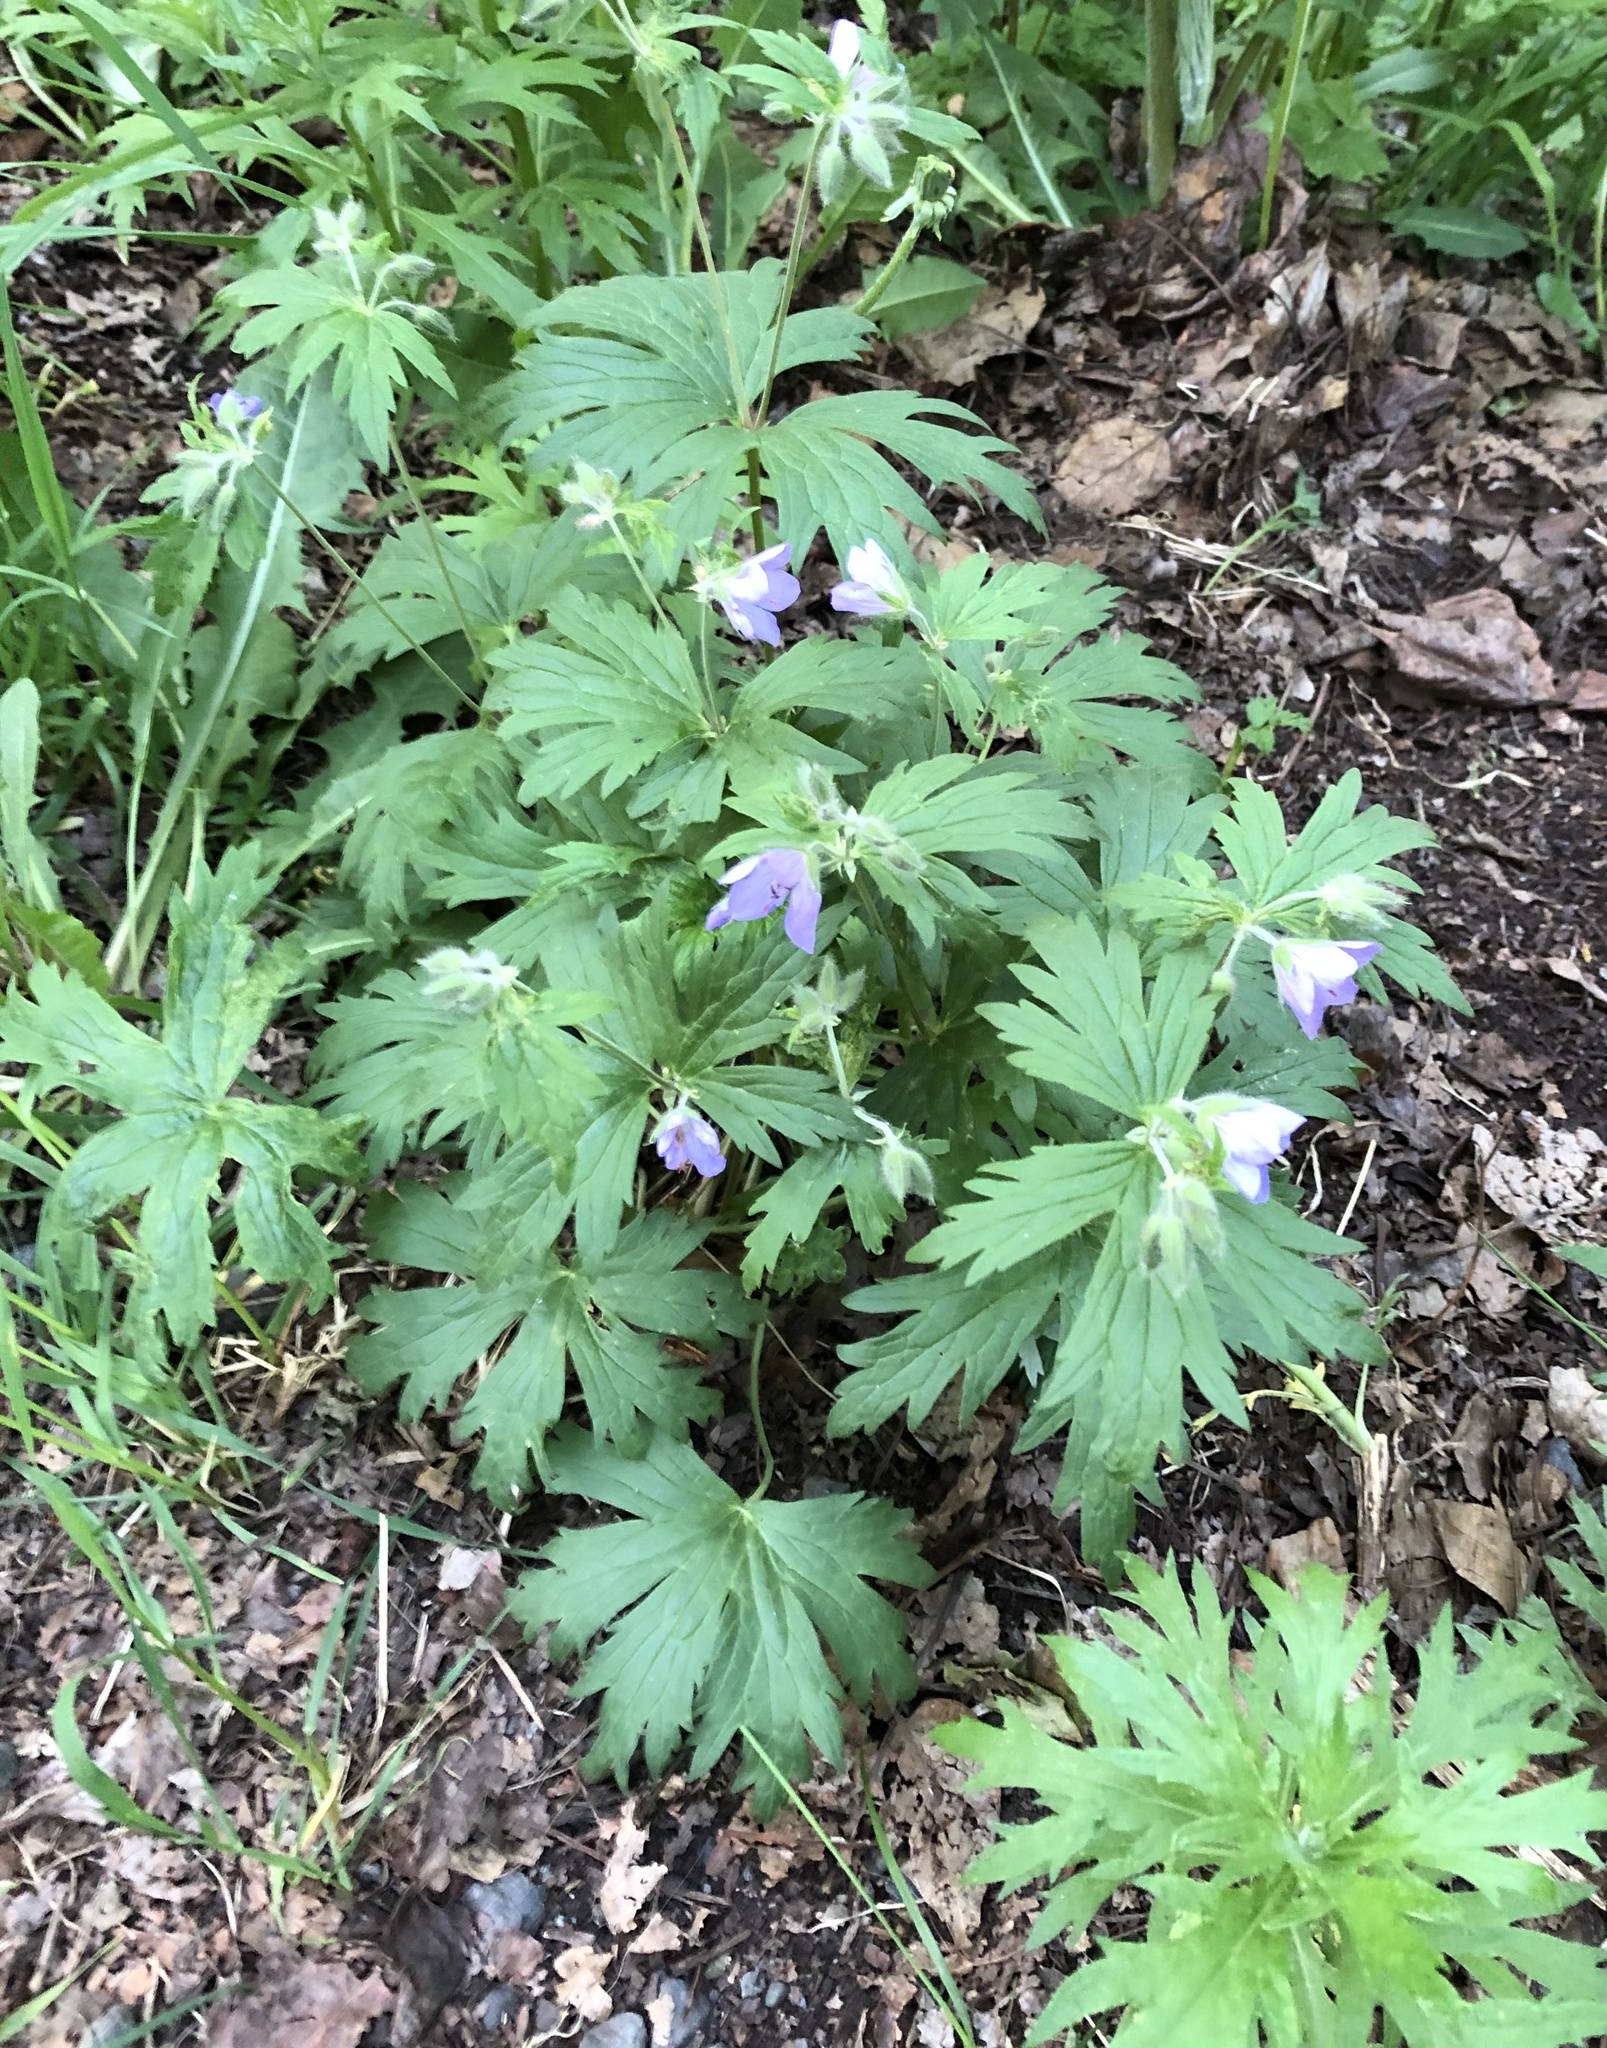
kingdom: Plantae
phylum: Tracheophyta
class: Magnoliopsida
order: Geraniales
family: Geraniaceae
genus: Geranium
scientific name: Geranium erianthum
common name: Northern crane's-bill
